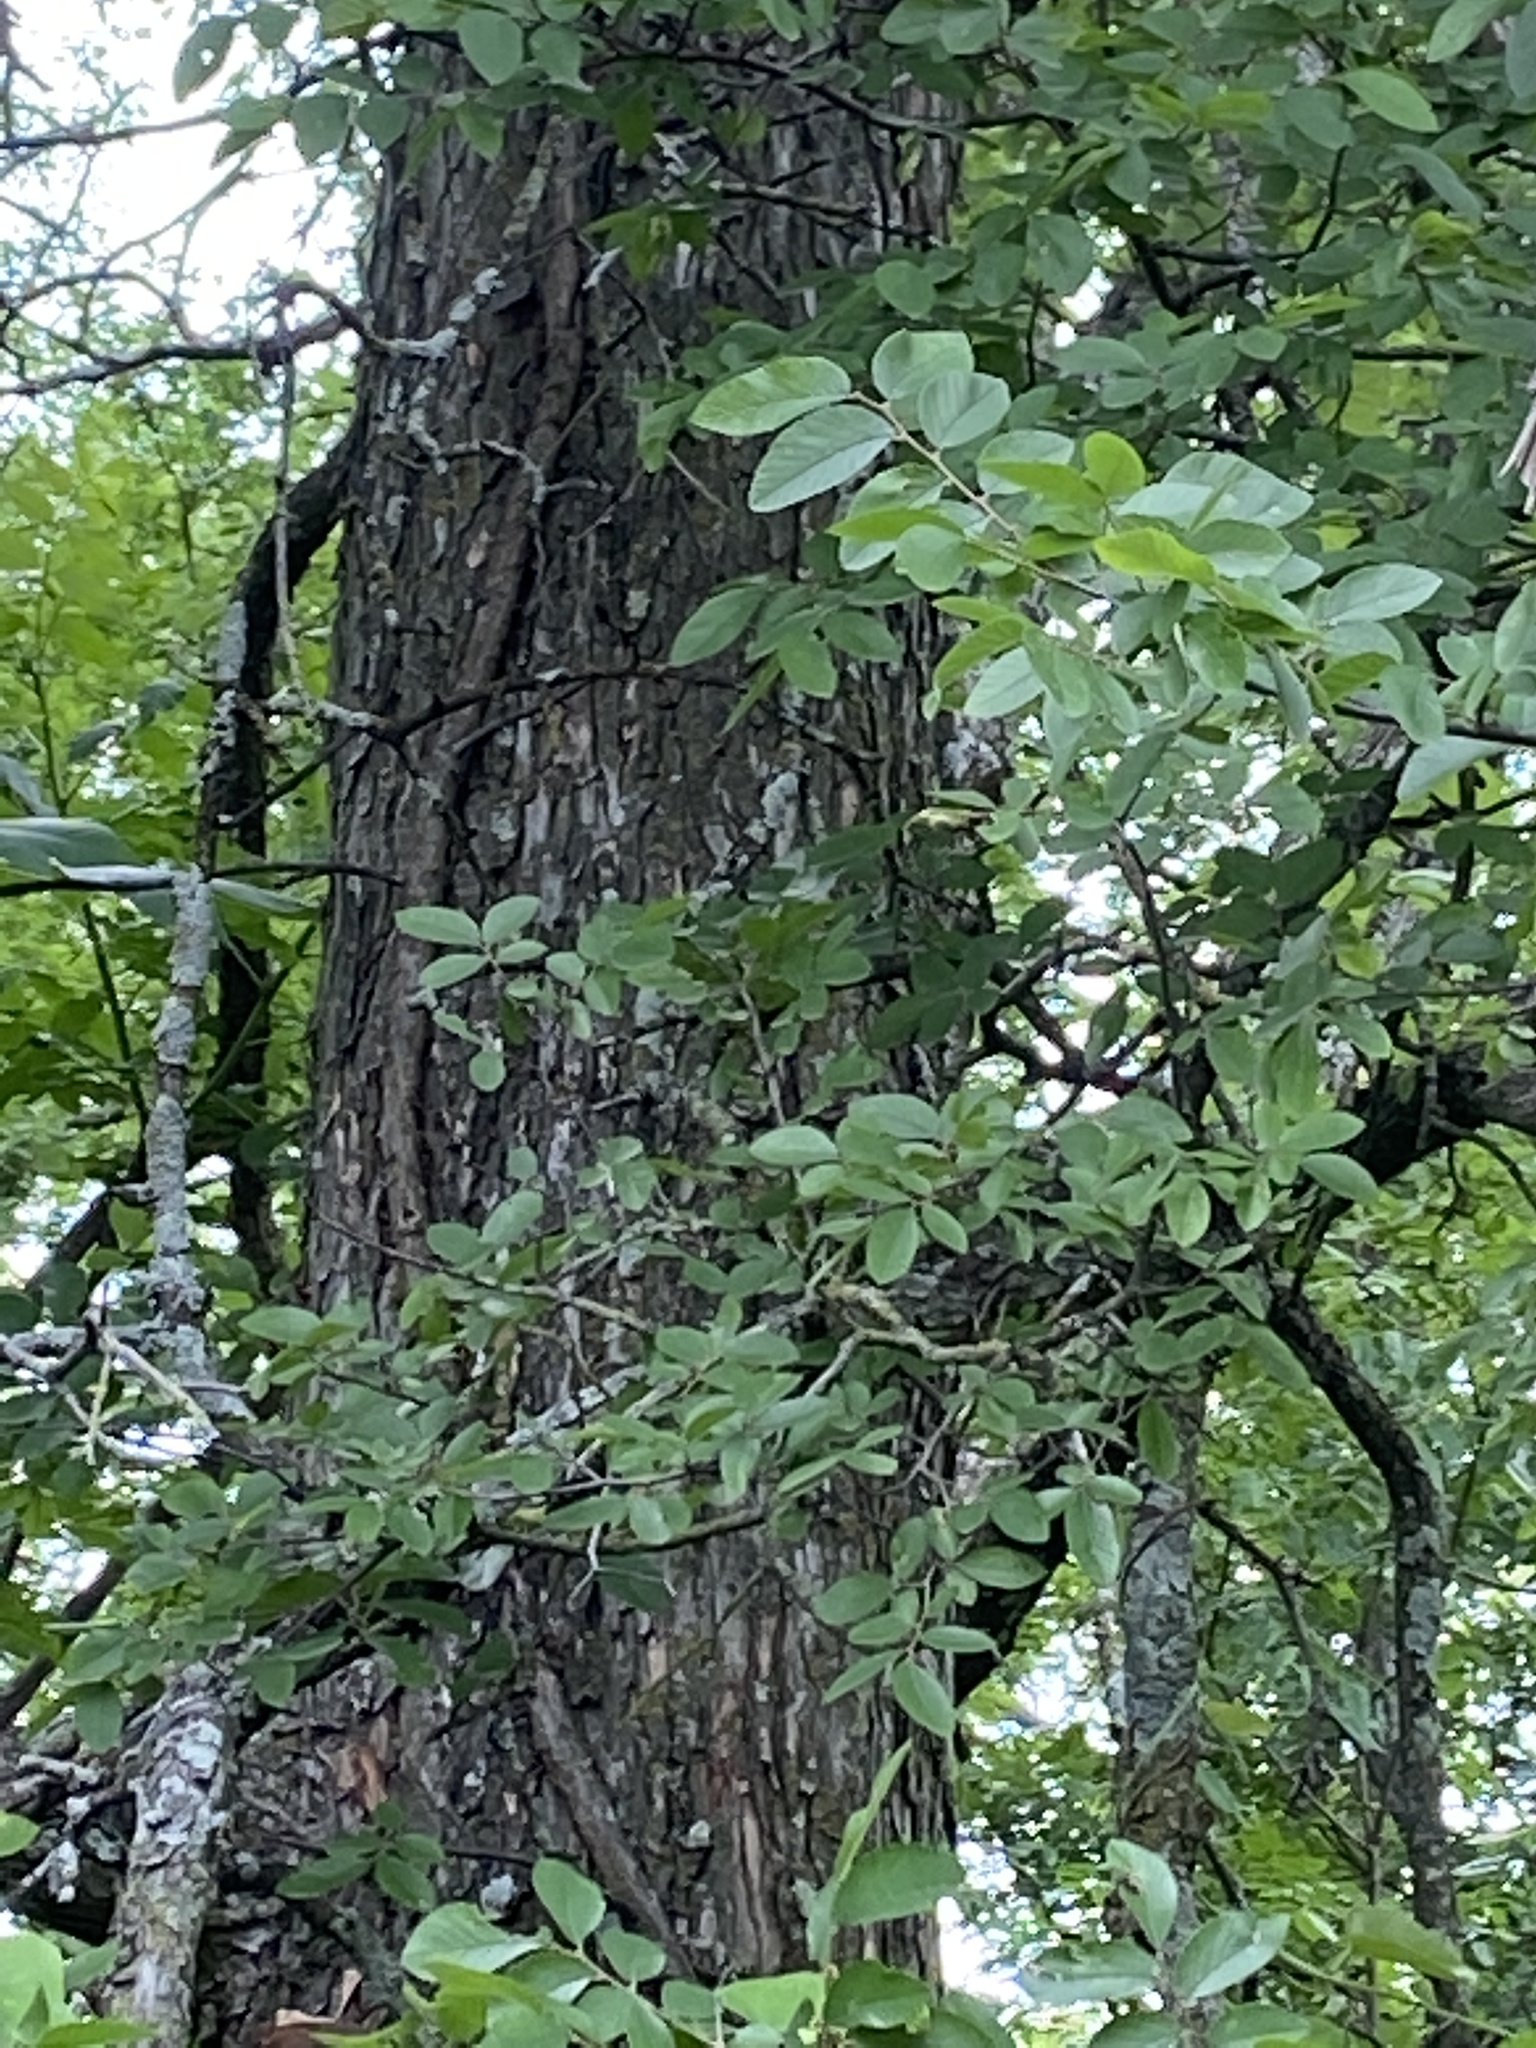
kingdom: Plantae
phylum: Tracheophyta
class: Magnoliopsida
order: Rosales
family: Ulmaceae
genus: Ulmus
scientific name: Ulmus crassifolia
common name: Basket elm
